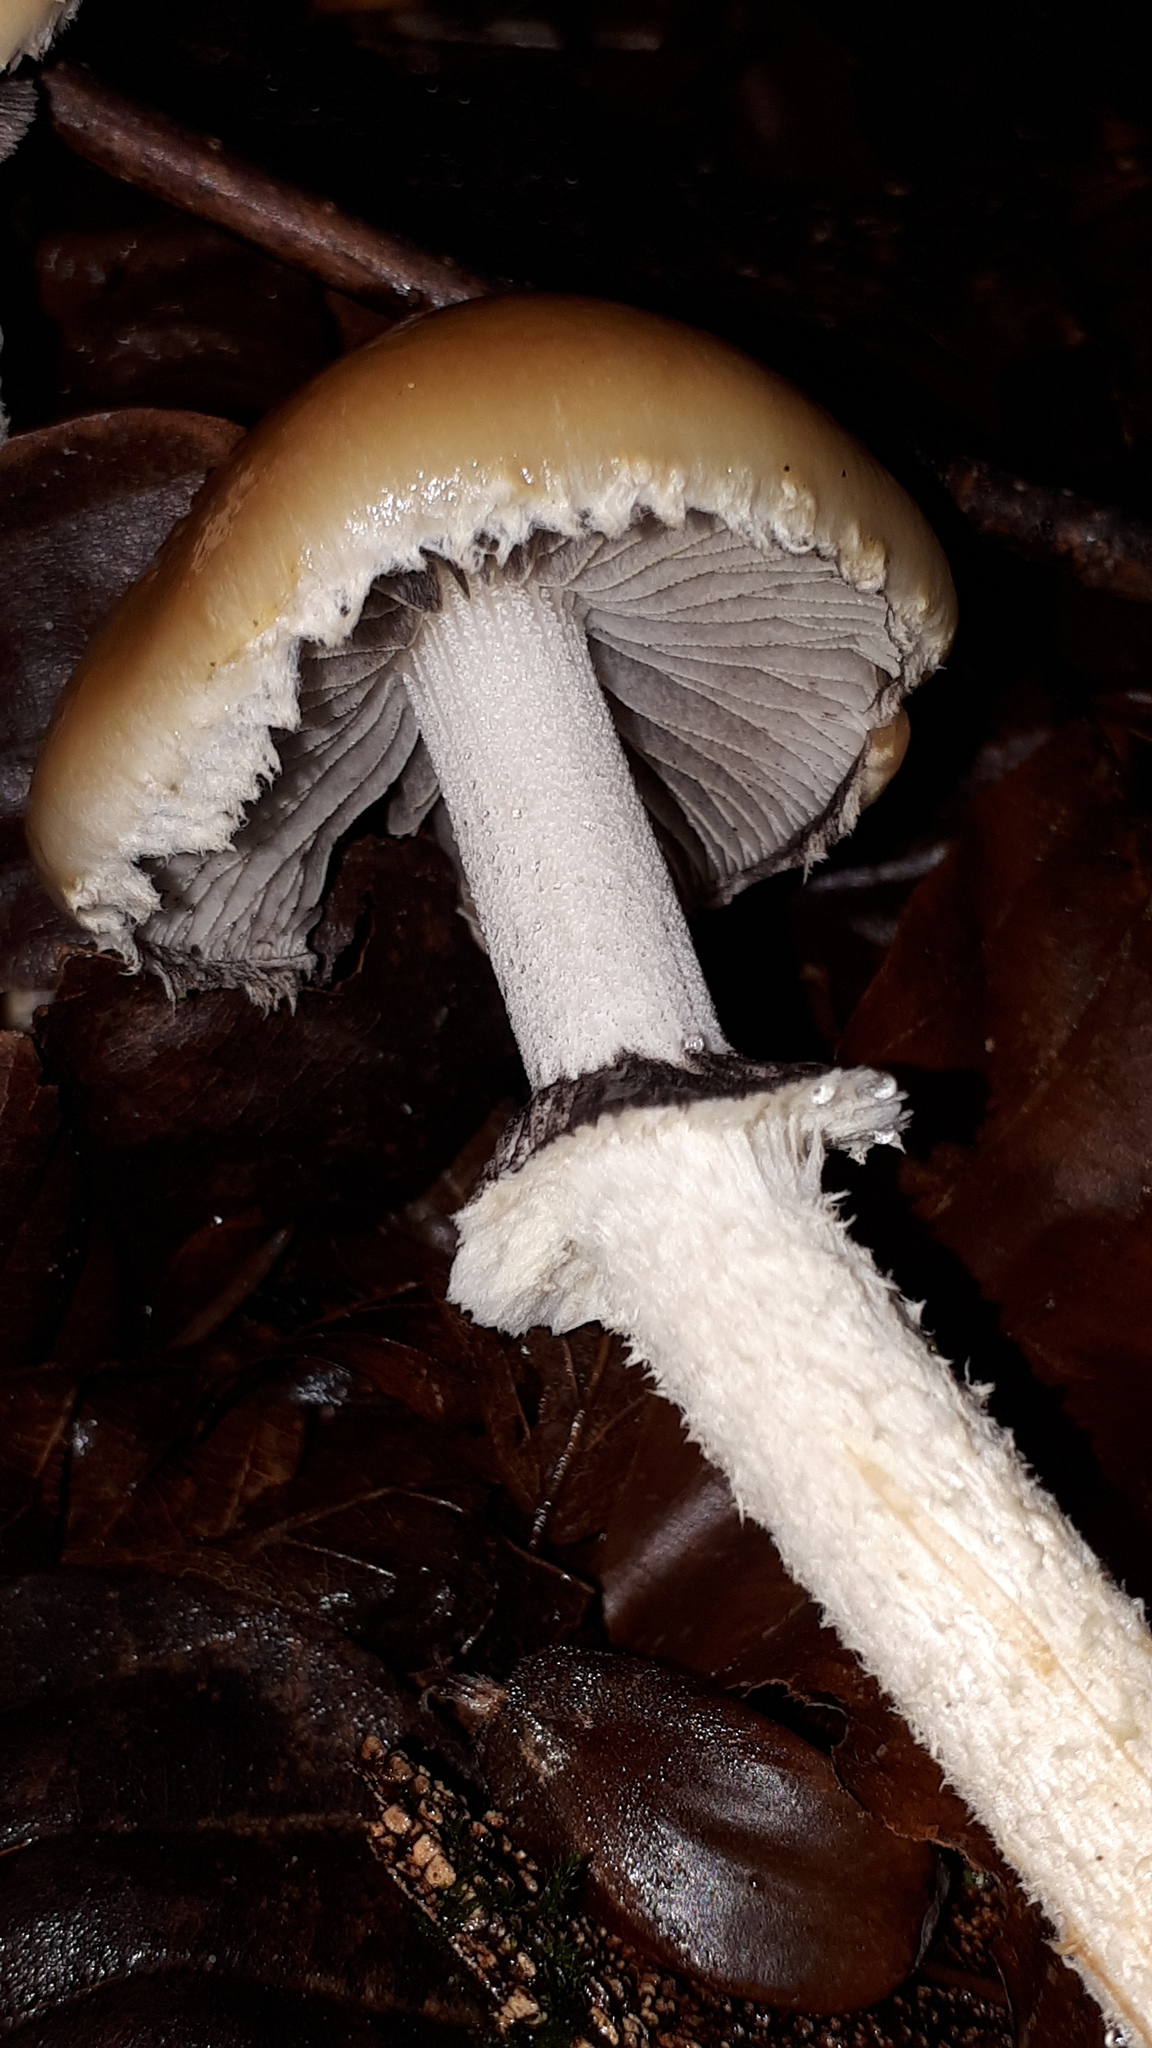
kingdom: Fungi
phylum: Basidiomycota
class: Agaricomycetes
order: Agaricales
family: Strophariaceae
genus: Leratiomyces
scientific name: Leratiomyces squamosus
